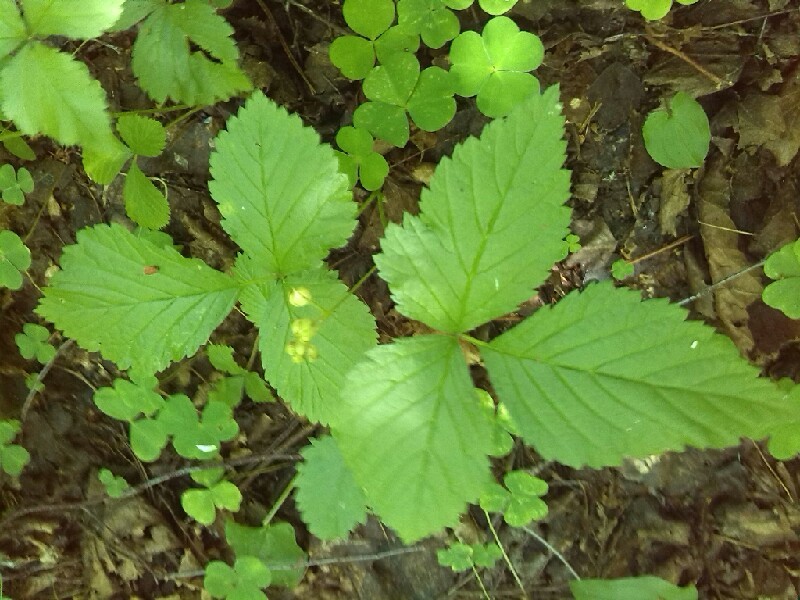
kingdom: Plantae
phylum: Tracheophyta
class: Magnoliopsida
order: Rosales
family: Rosaceae
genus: Rubus
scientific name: Rubus saxatilis
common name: Stone bramble
